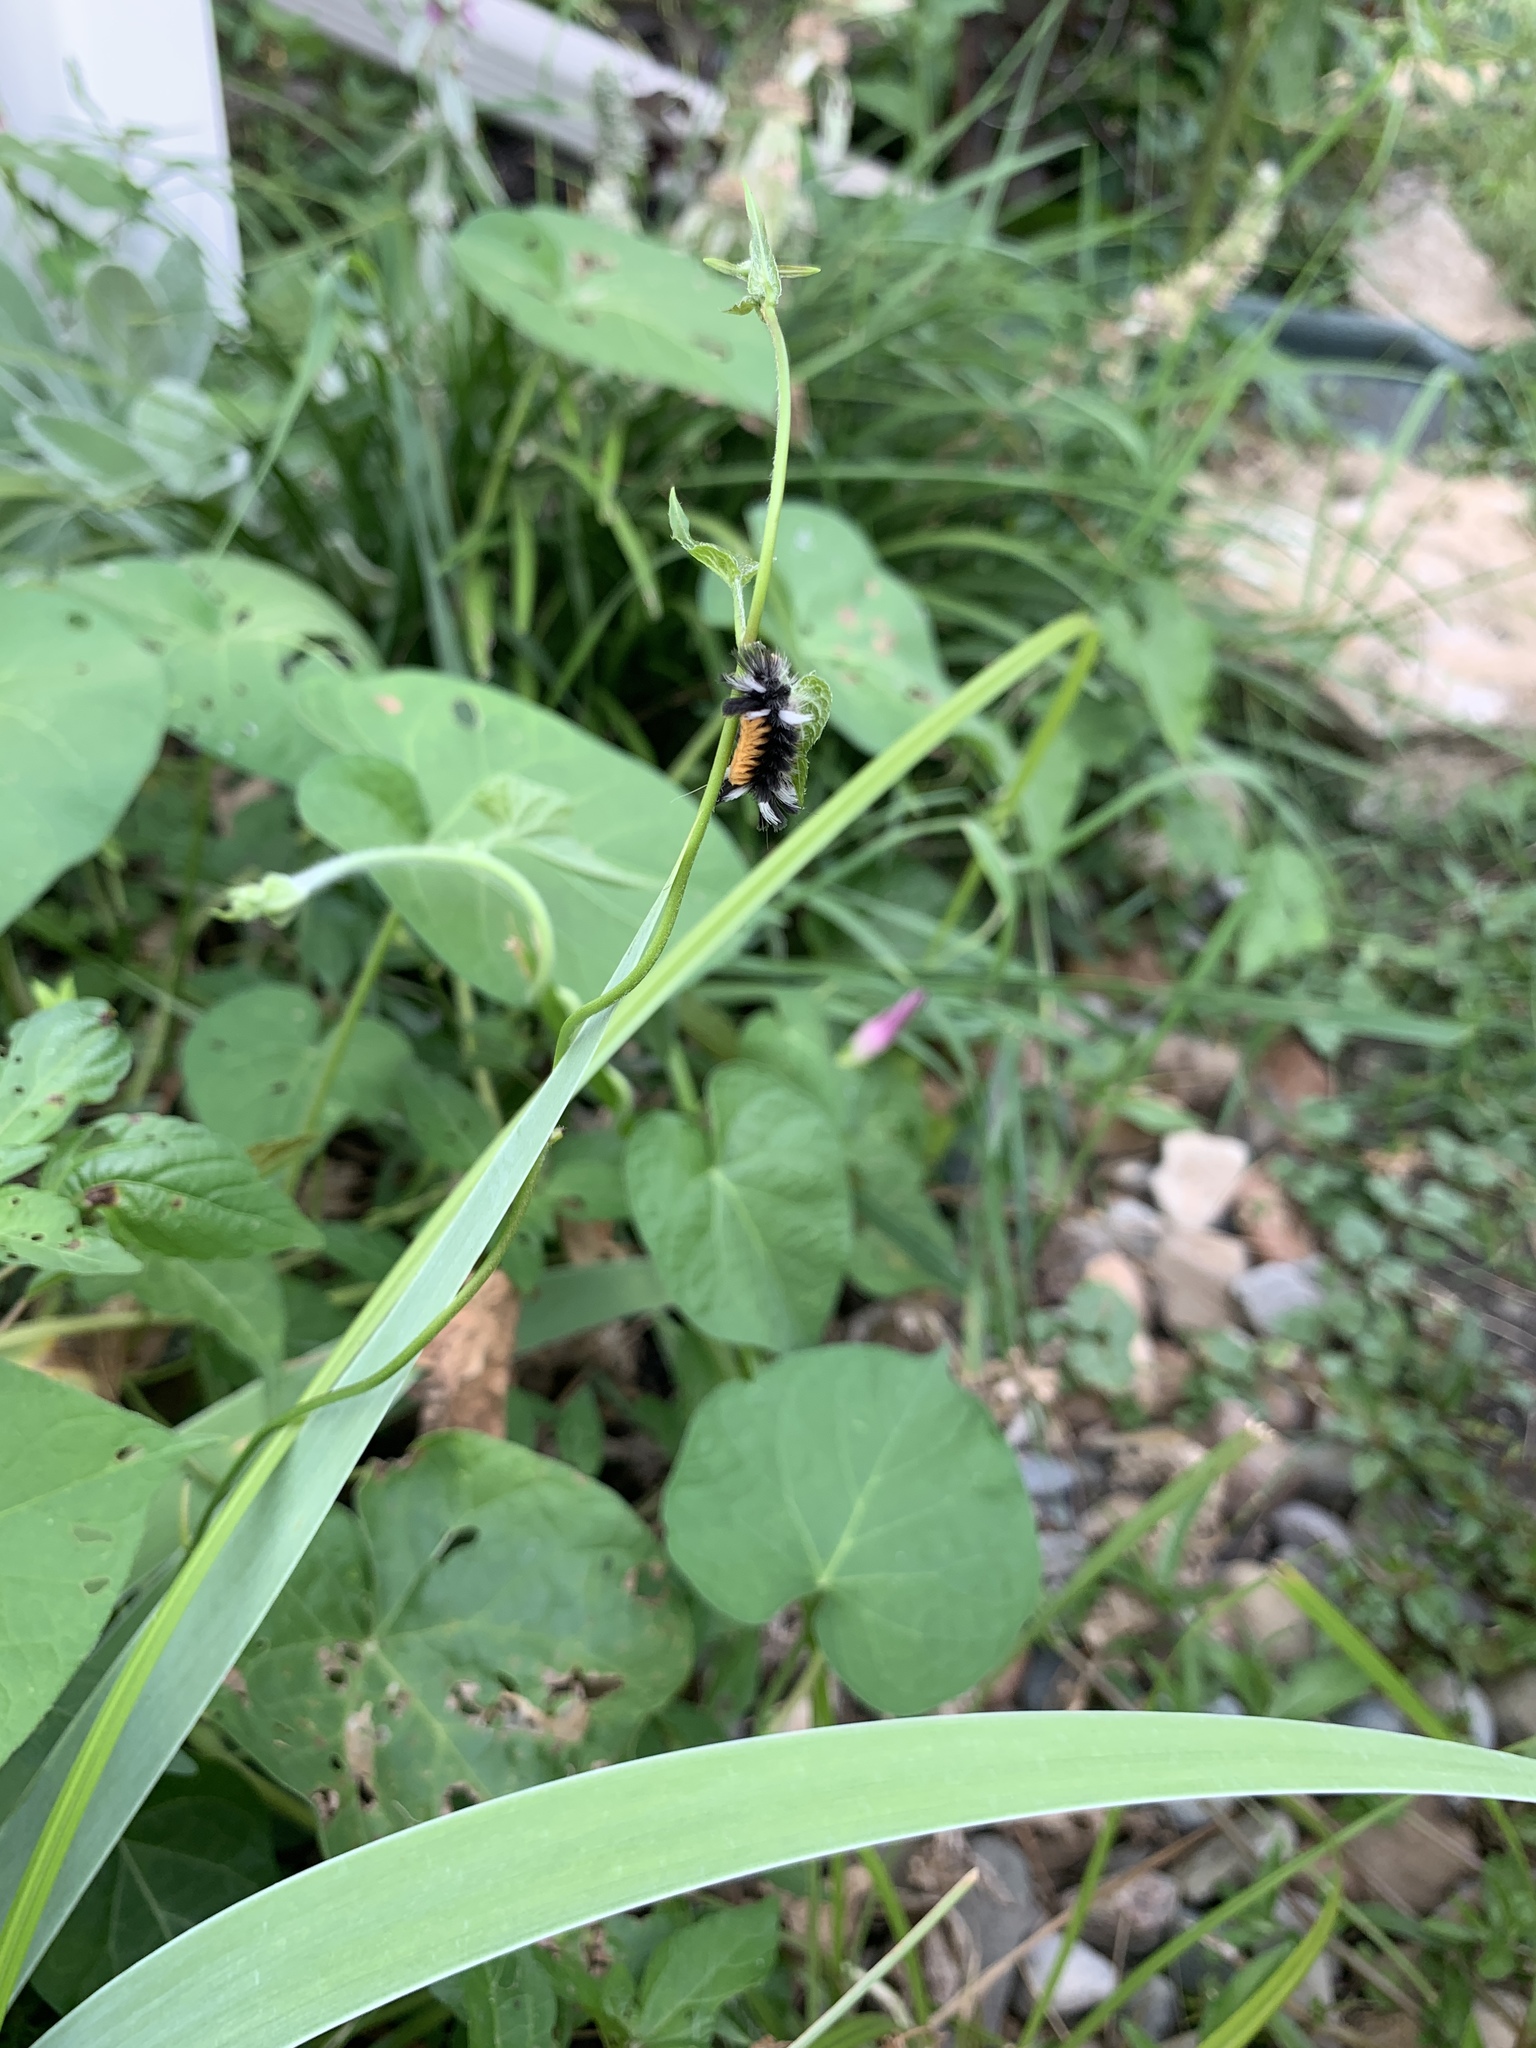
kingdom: Animalia
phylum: Arthropoda
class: Insecta
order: Lepidoptera
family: Erebidae
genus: Euchaetes
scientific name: Euchaetes egle
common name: Milkweed tussock moth
